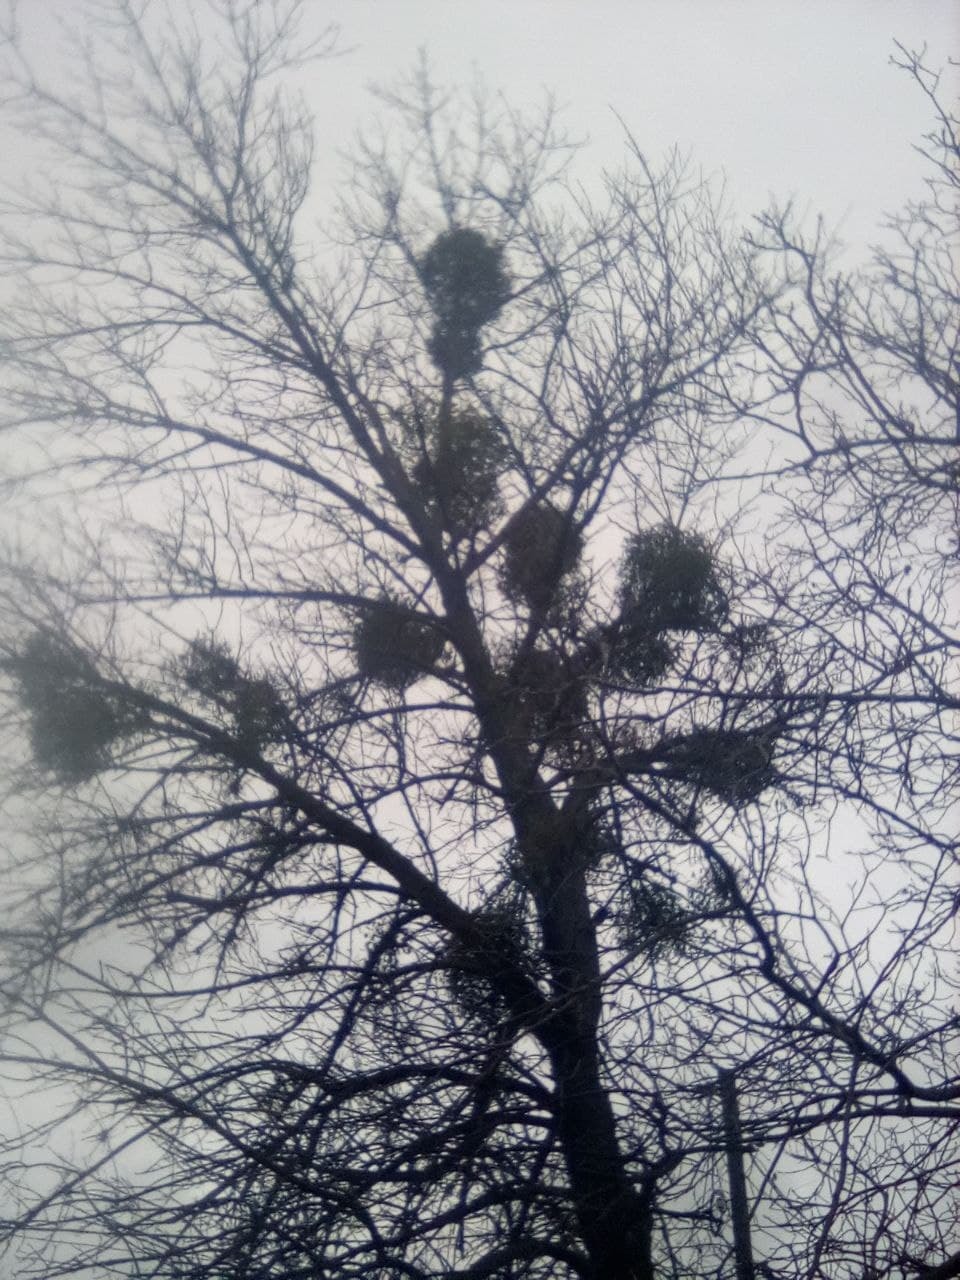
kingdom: Plantae
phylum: Tracheophyta
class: Magnoliopsida
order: Santalales
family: Viscaceae
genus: Viscum
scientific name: Viscum album
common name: Mistletoe
